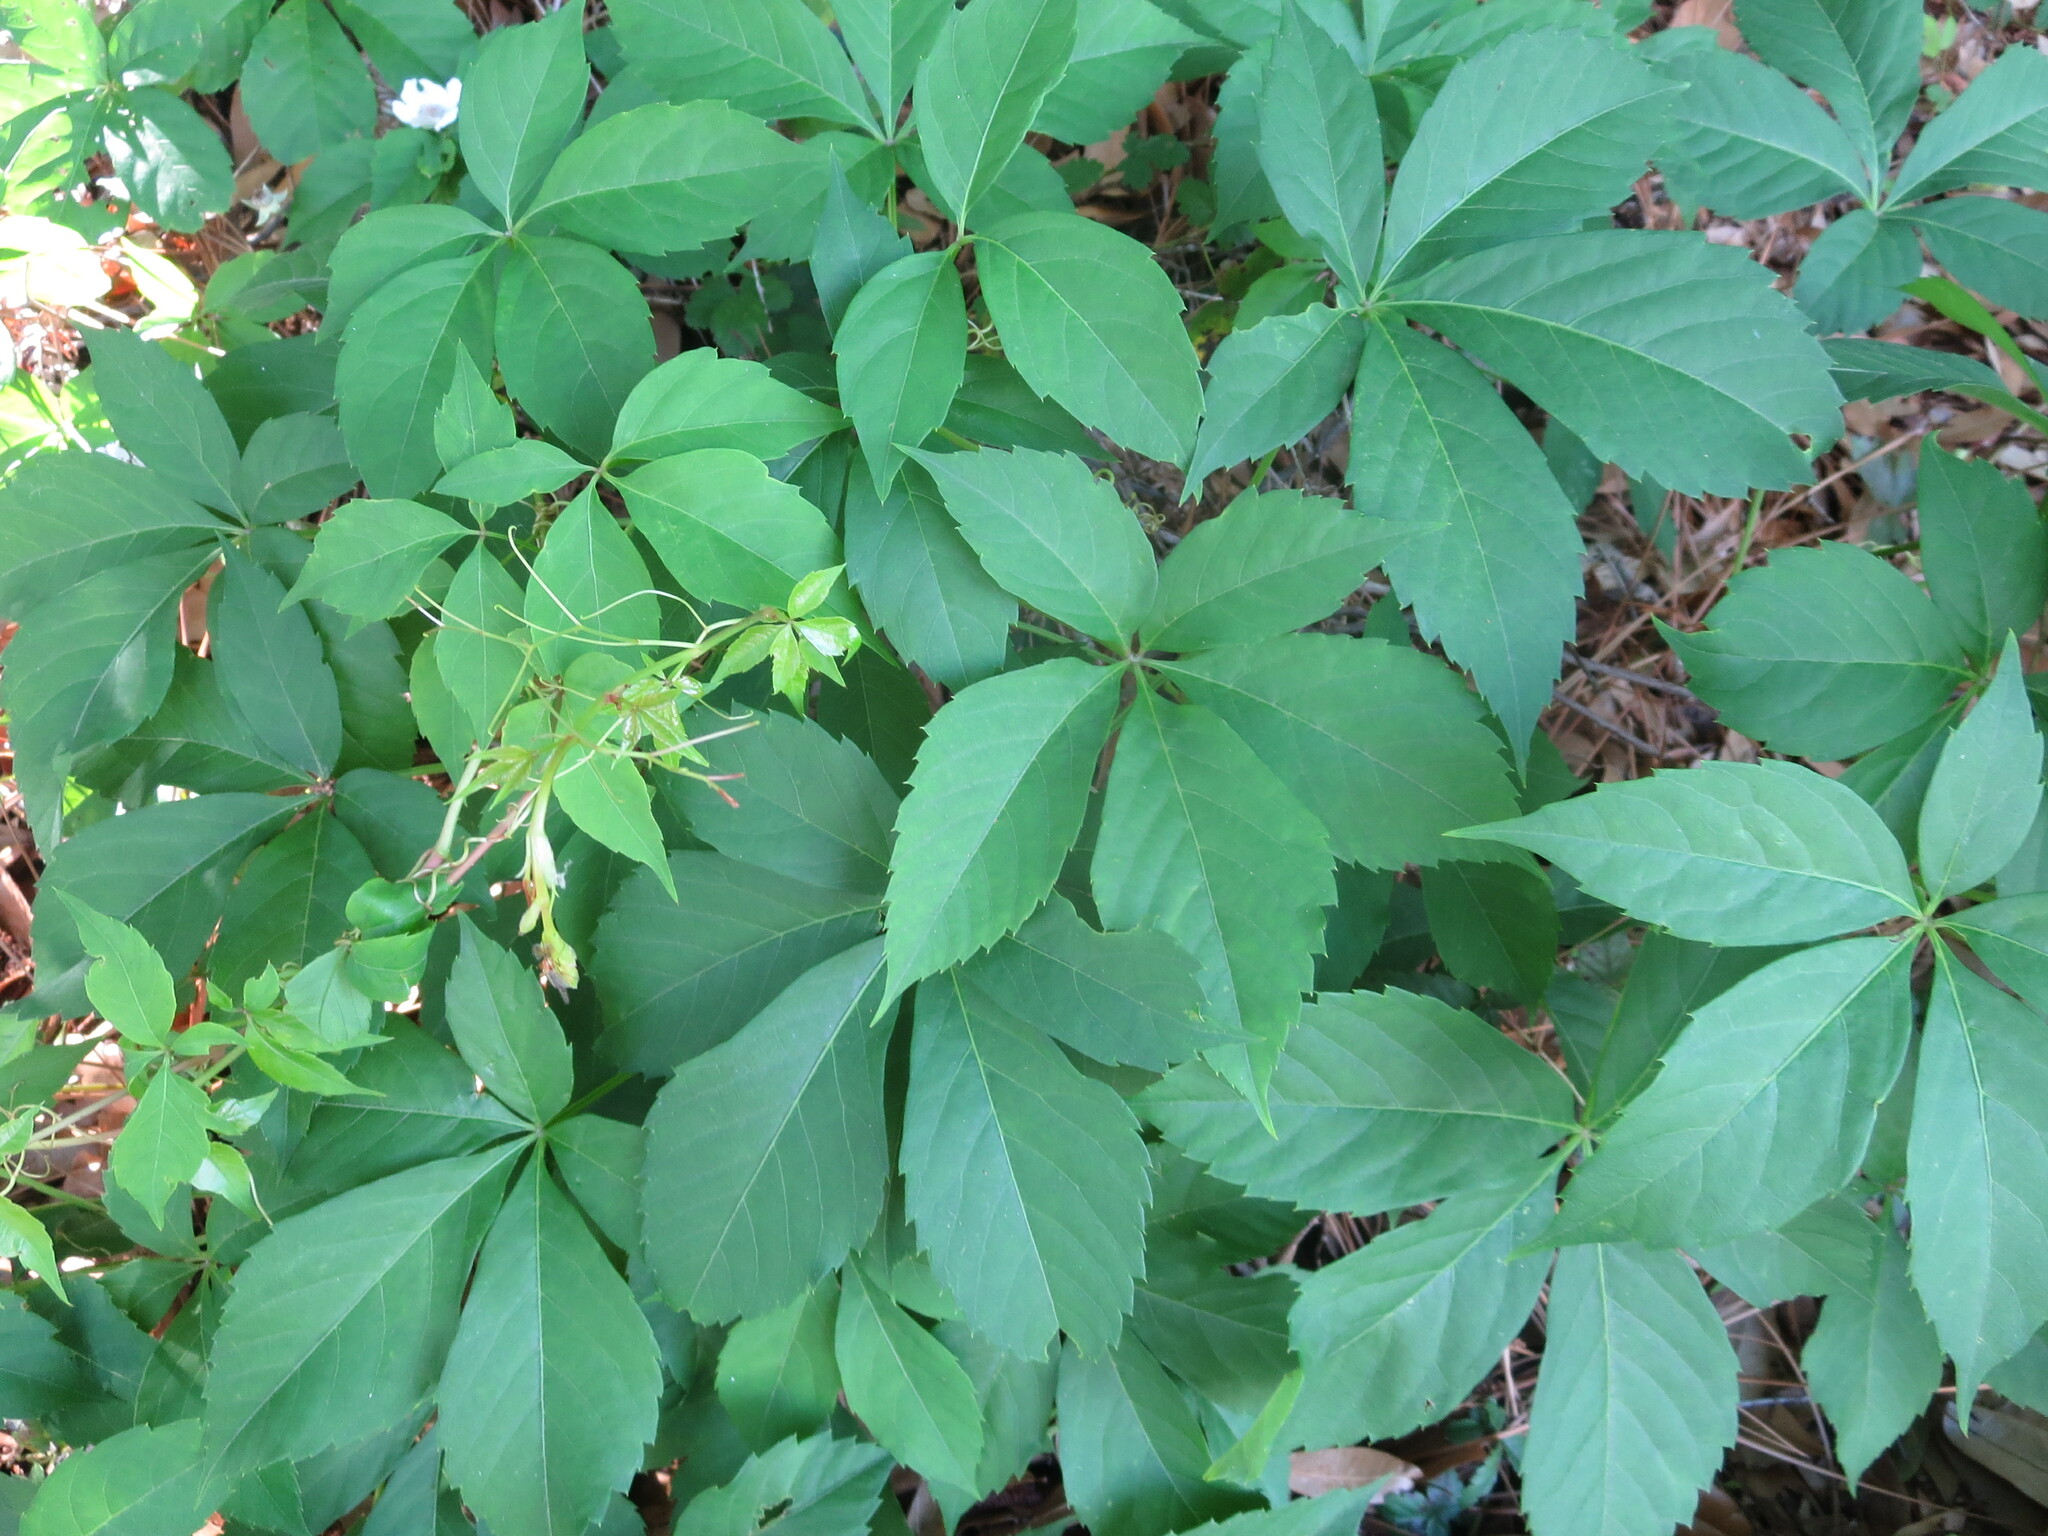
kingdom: Plantae
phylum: Tracheophyta
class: Magnoliopsida
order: Vitales
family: Vitaceae
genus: Parthenocissus
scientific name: Parthenocissus quinquefolia
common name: Virginia-creeper
